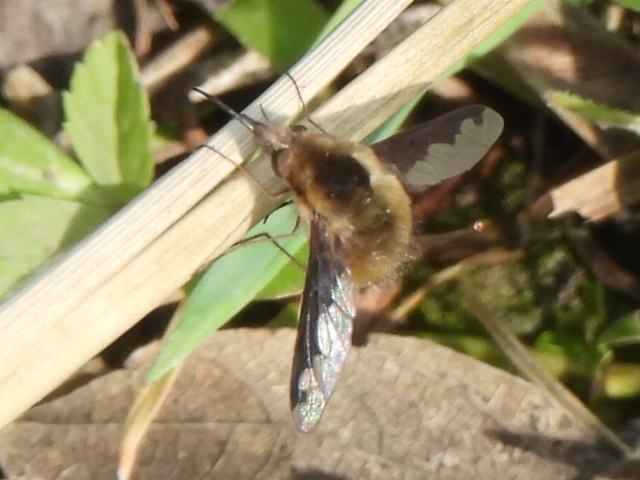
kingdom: Animalia
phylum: Arthropoda
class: Insecta
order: Diptera
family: Bombyliidae
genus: Bombylius
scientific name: Bombylius major
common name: Bee fly
